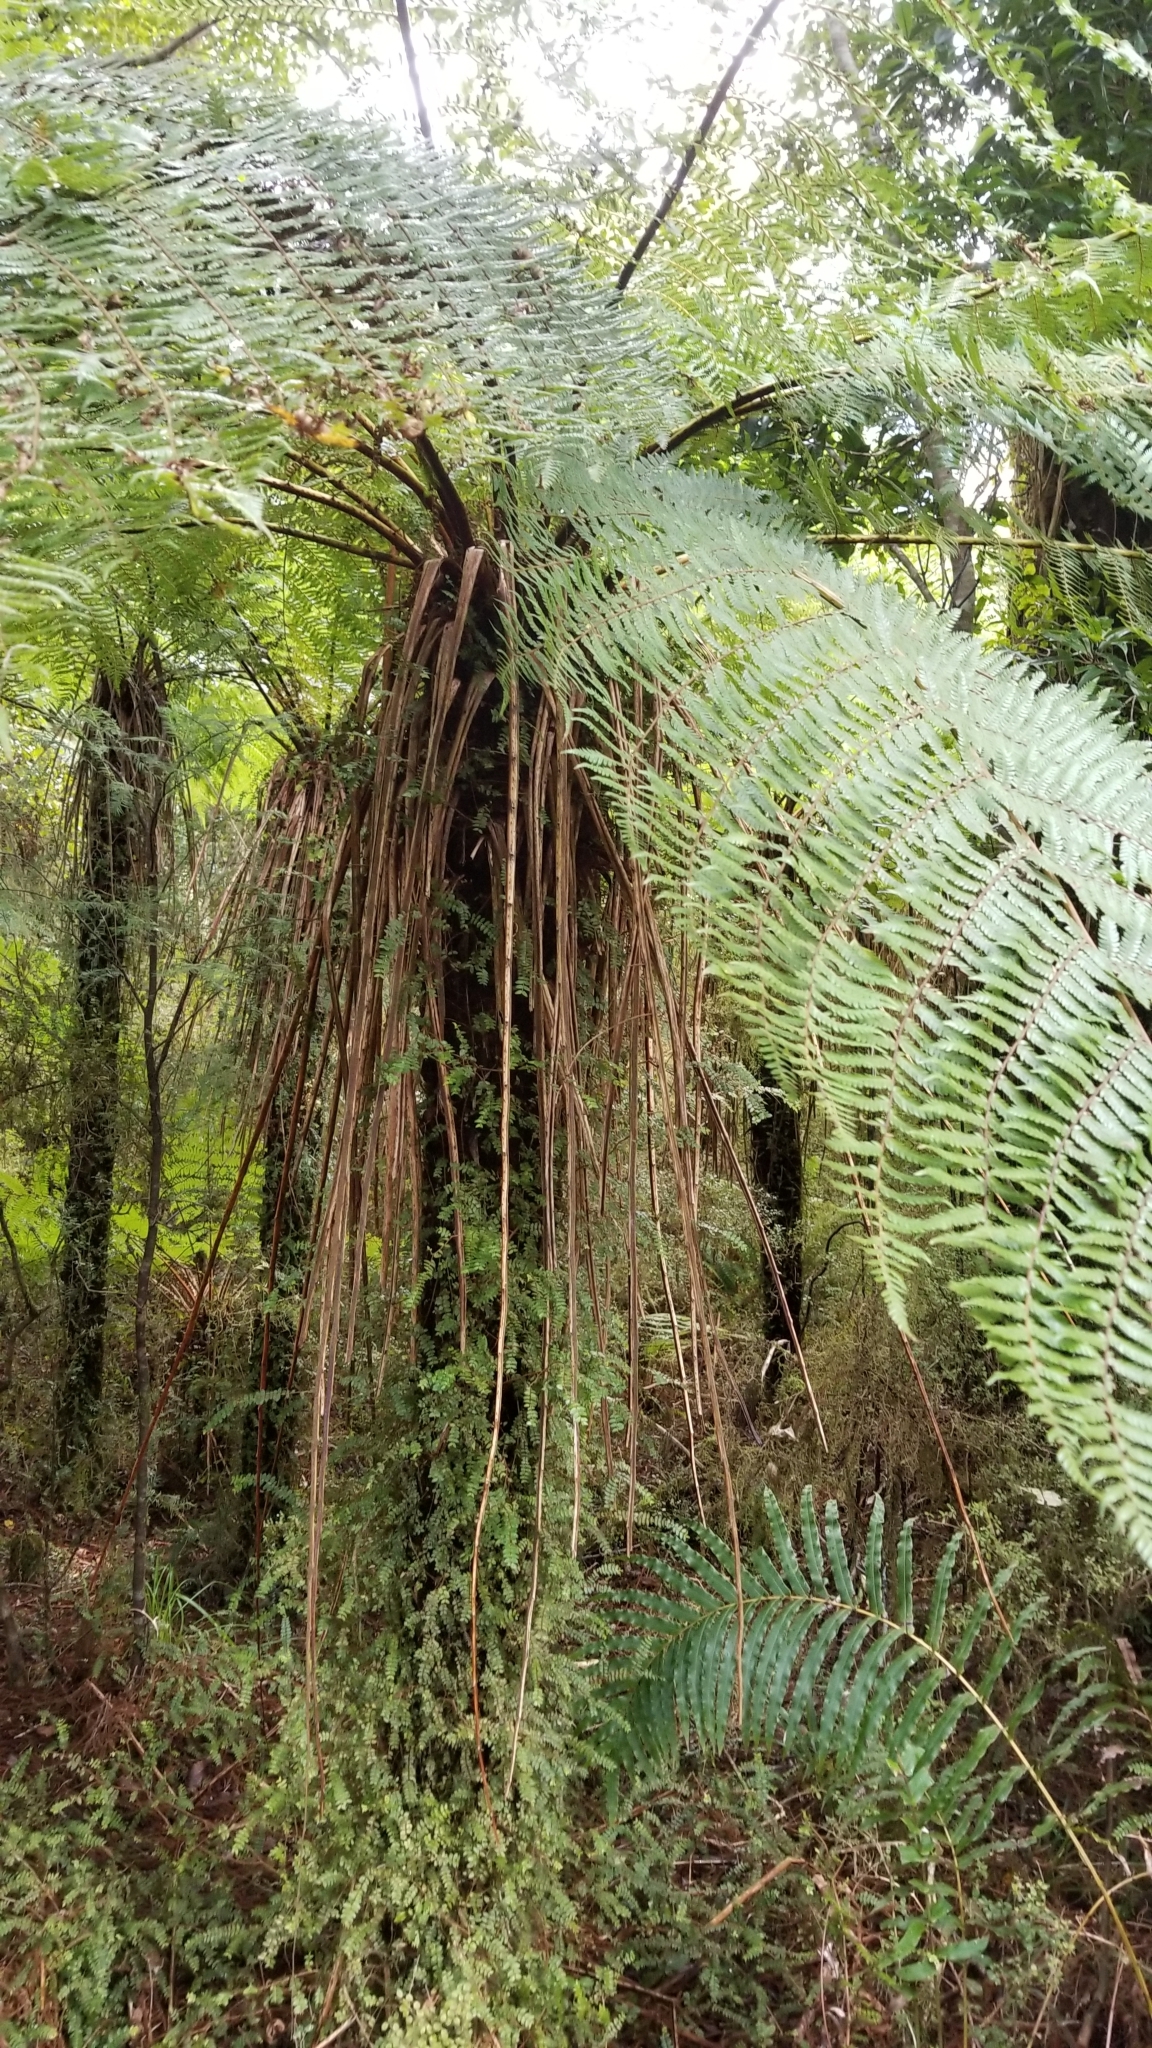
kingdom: Plantae
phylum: Tracheophyta
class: Polypodiopsida
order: Cyatheales
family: Cyatheaceae
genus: Alsophila
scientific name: Alsophila smithii
